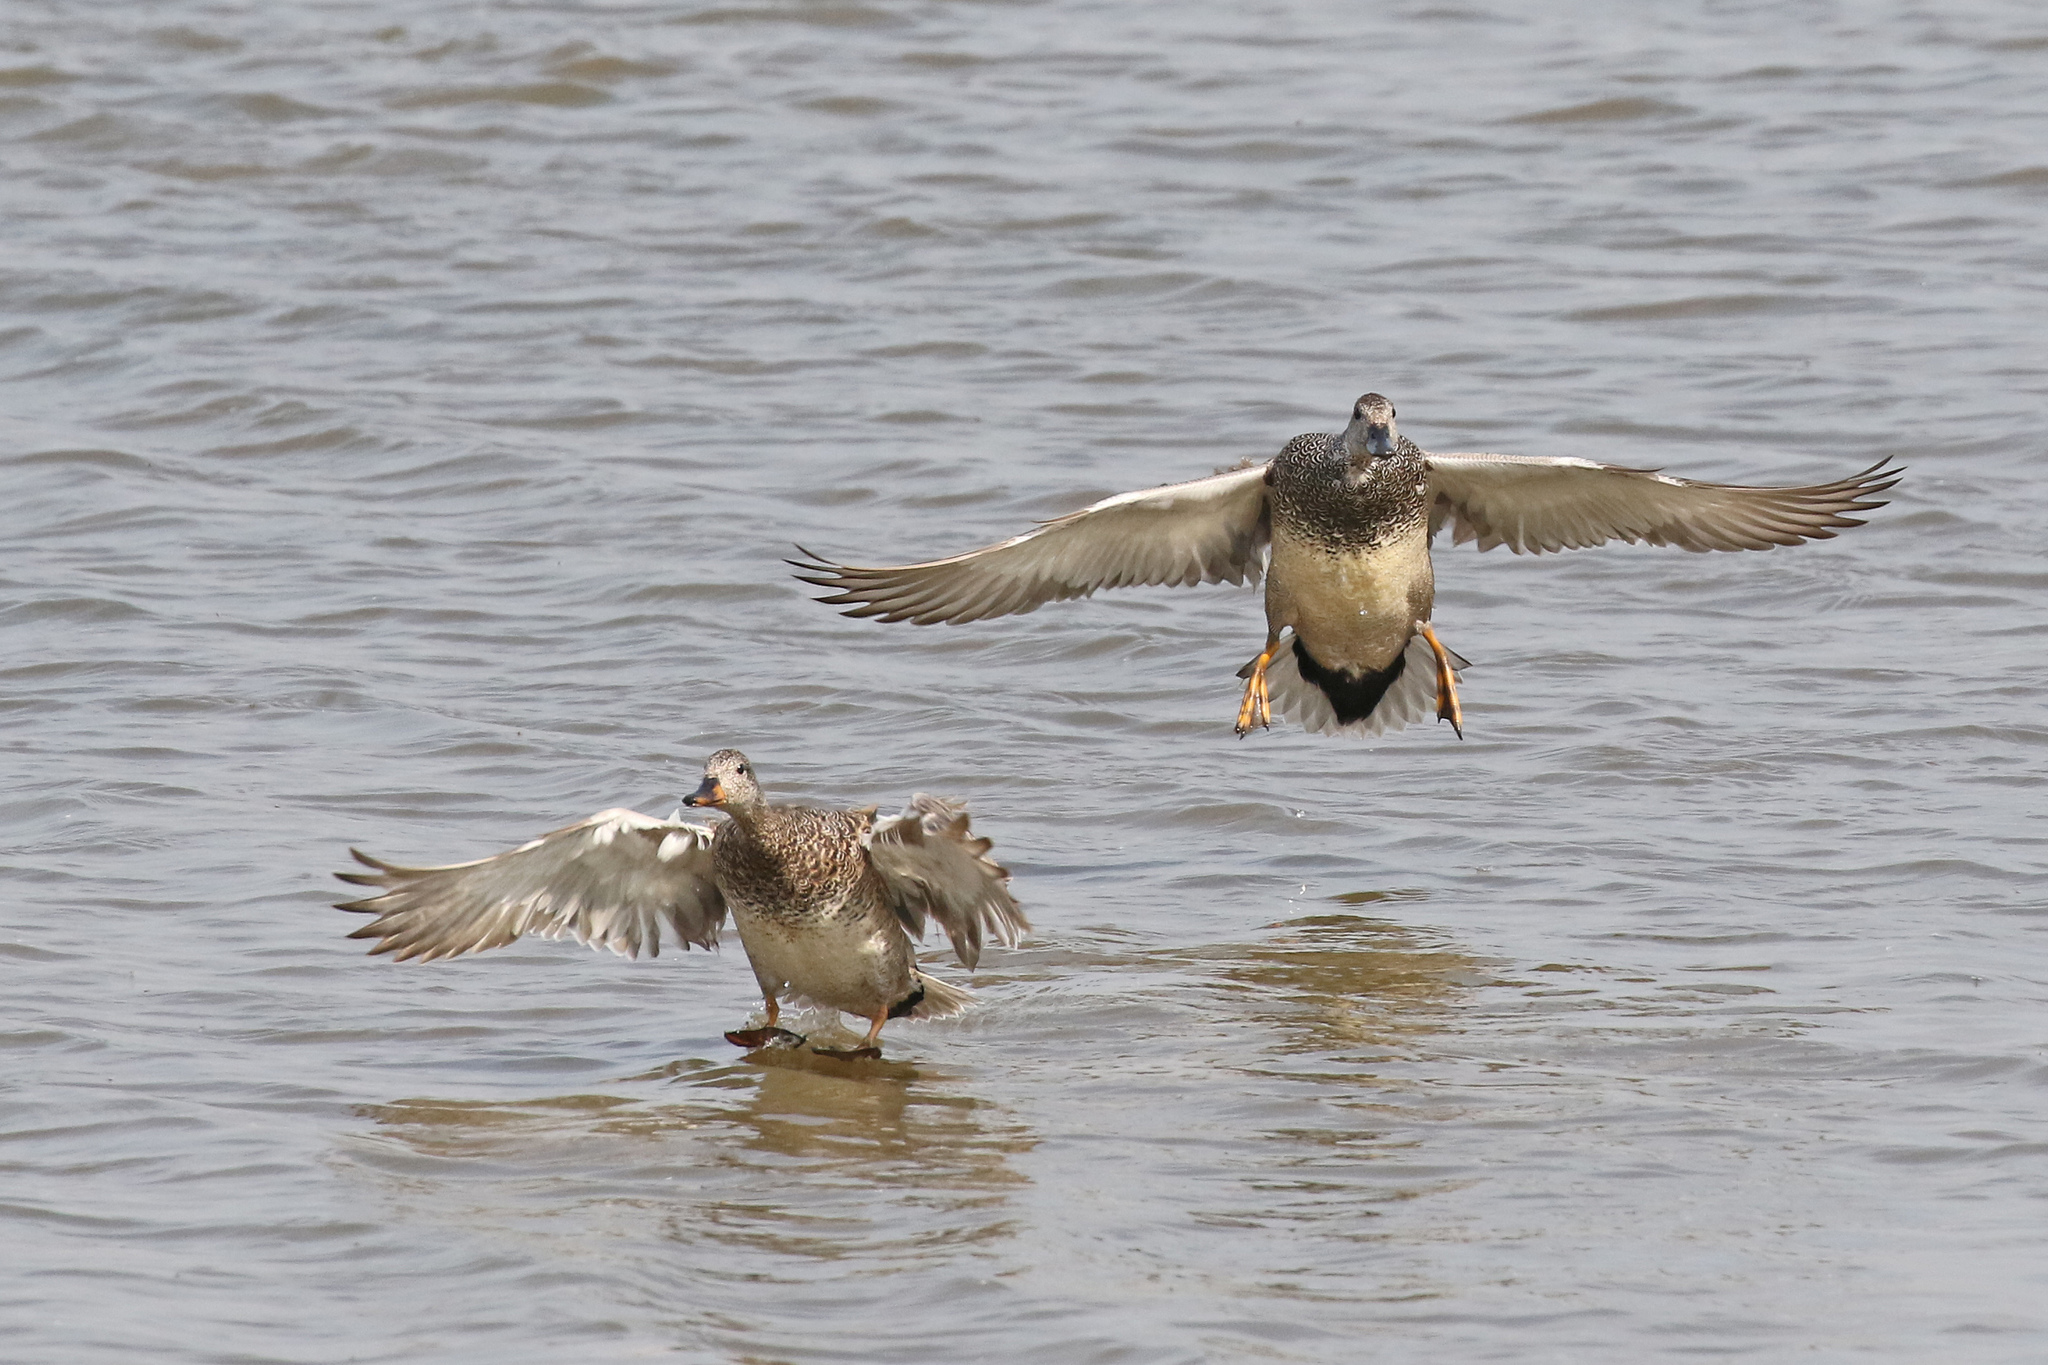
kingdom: Animalia
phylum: Chordata
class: Aves
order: Anseriformes
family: Anatidae
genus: Mareca
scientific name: Mareca strepera
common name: Gadwall
